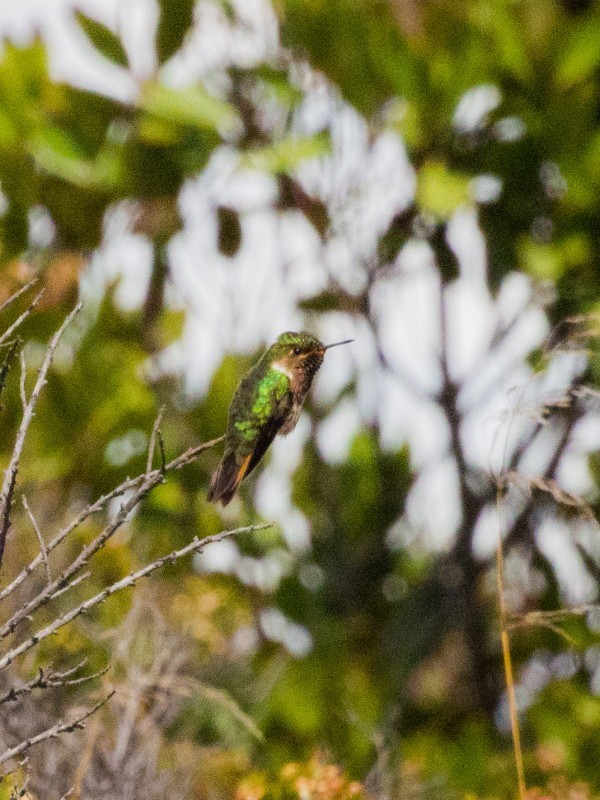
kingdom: Animalia
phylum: Chordata
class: Aves
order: Apodiformes
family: Trochilidae
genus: Selasphorus
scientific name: Selasphorus flammula
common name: Volcano hummingbird
